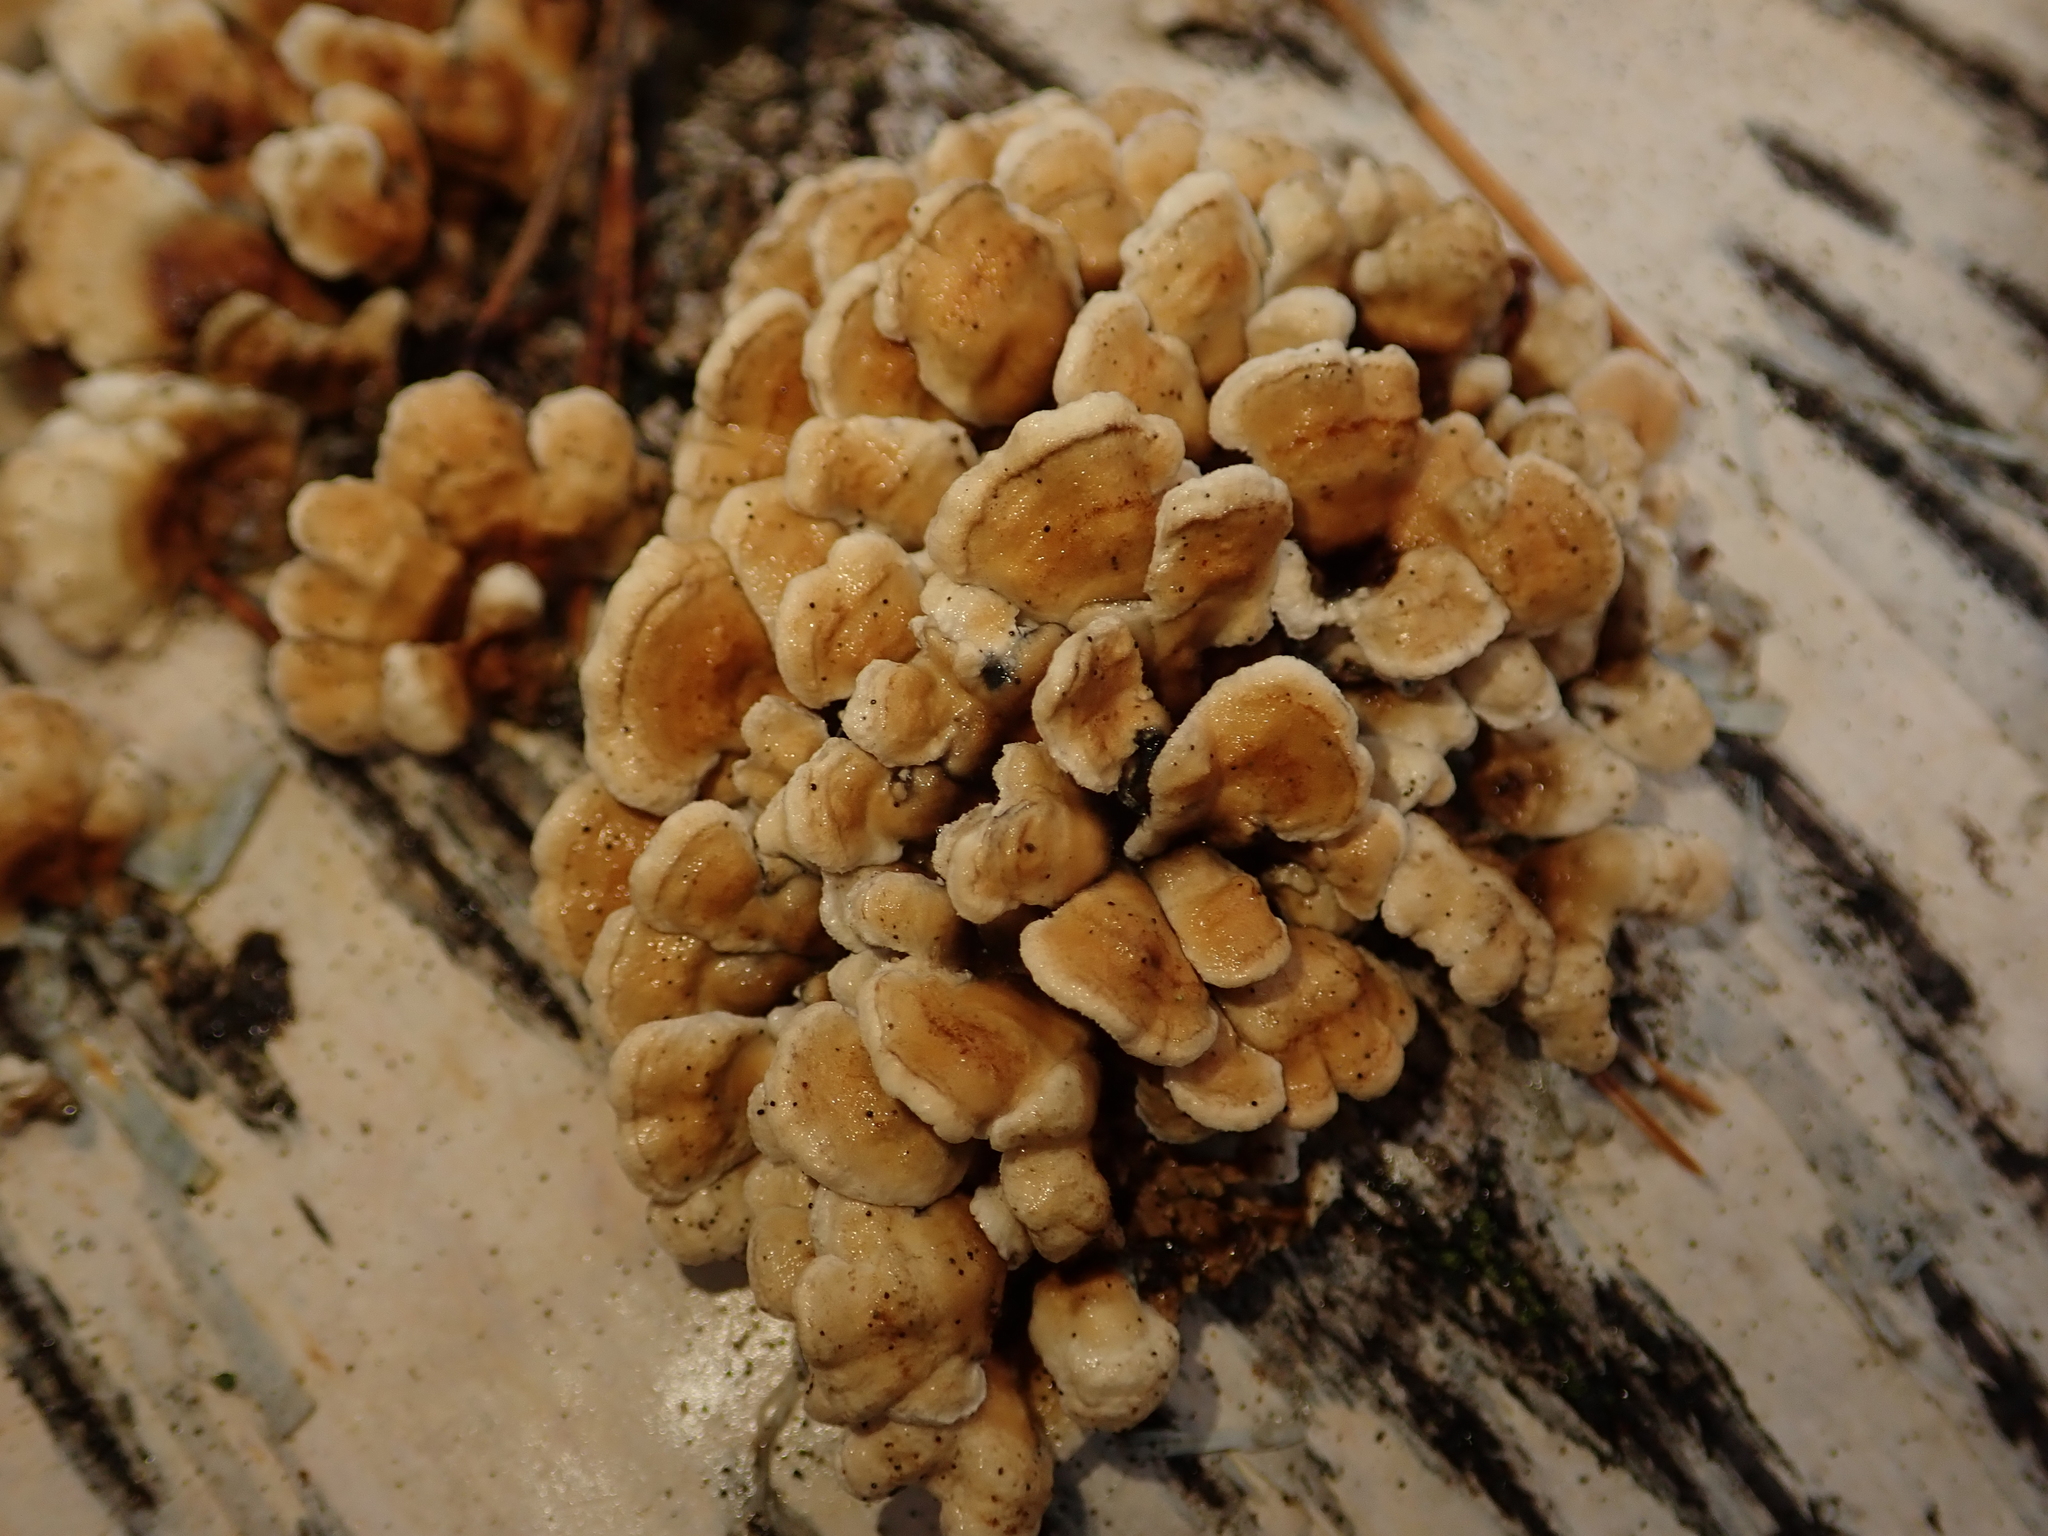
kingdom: Fungi
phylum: Basidiomycota
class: Agaricomycetes
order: Amylocorticiales
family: Amylocorticiaceae
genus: Plicaturopsis
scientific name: Plicaturopsis crispa
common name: Crimped gill
